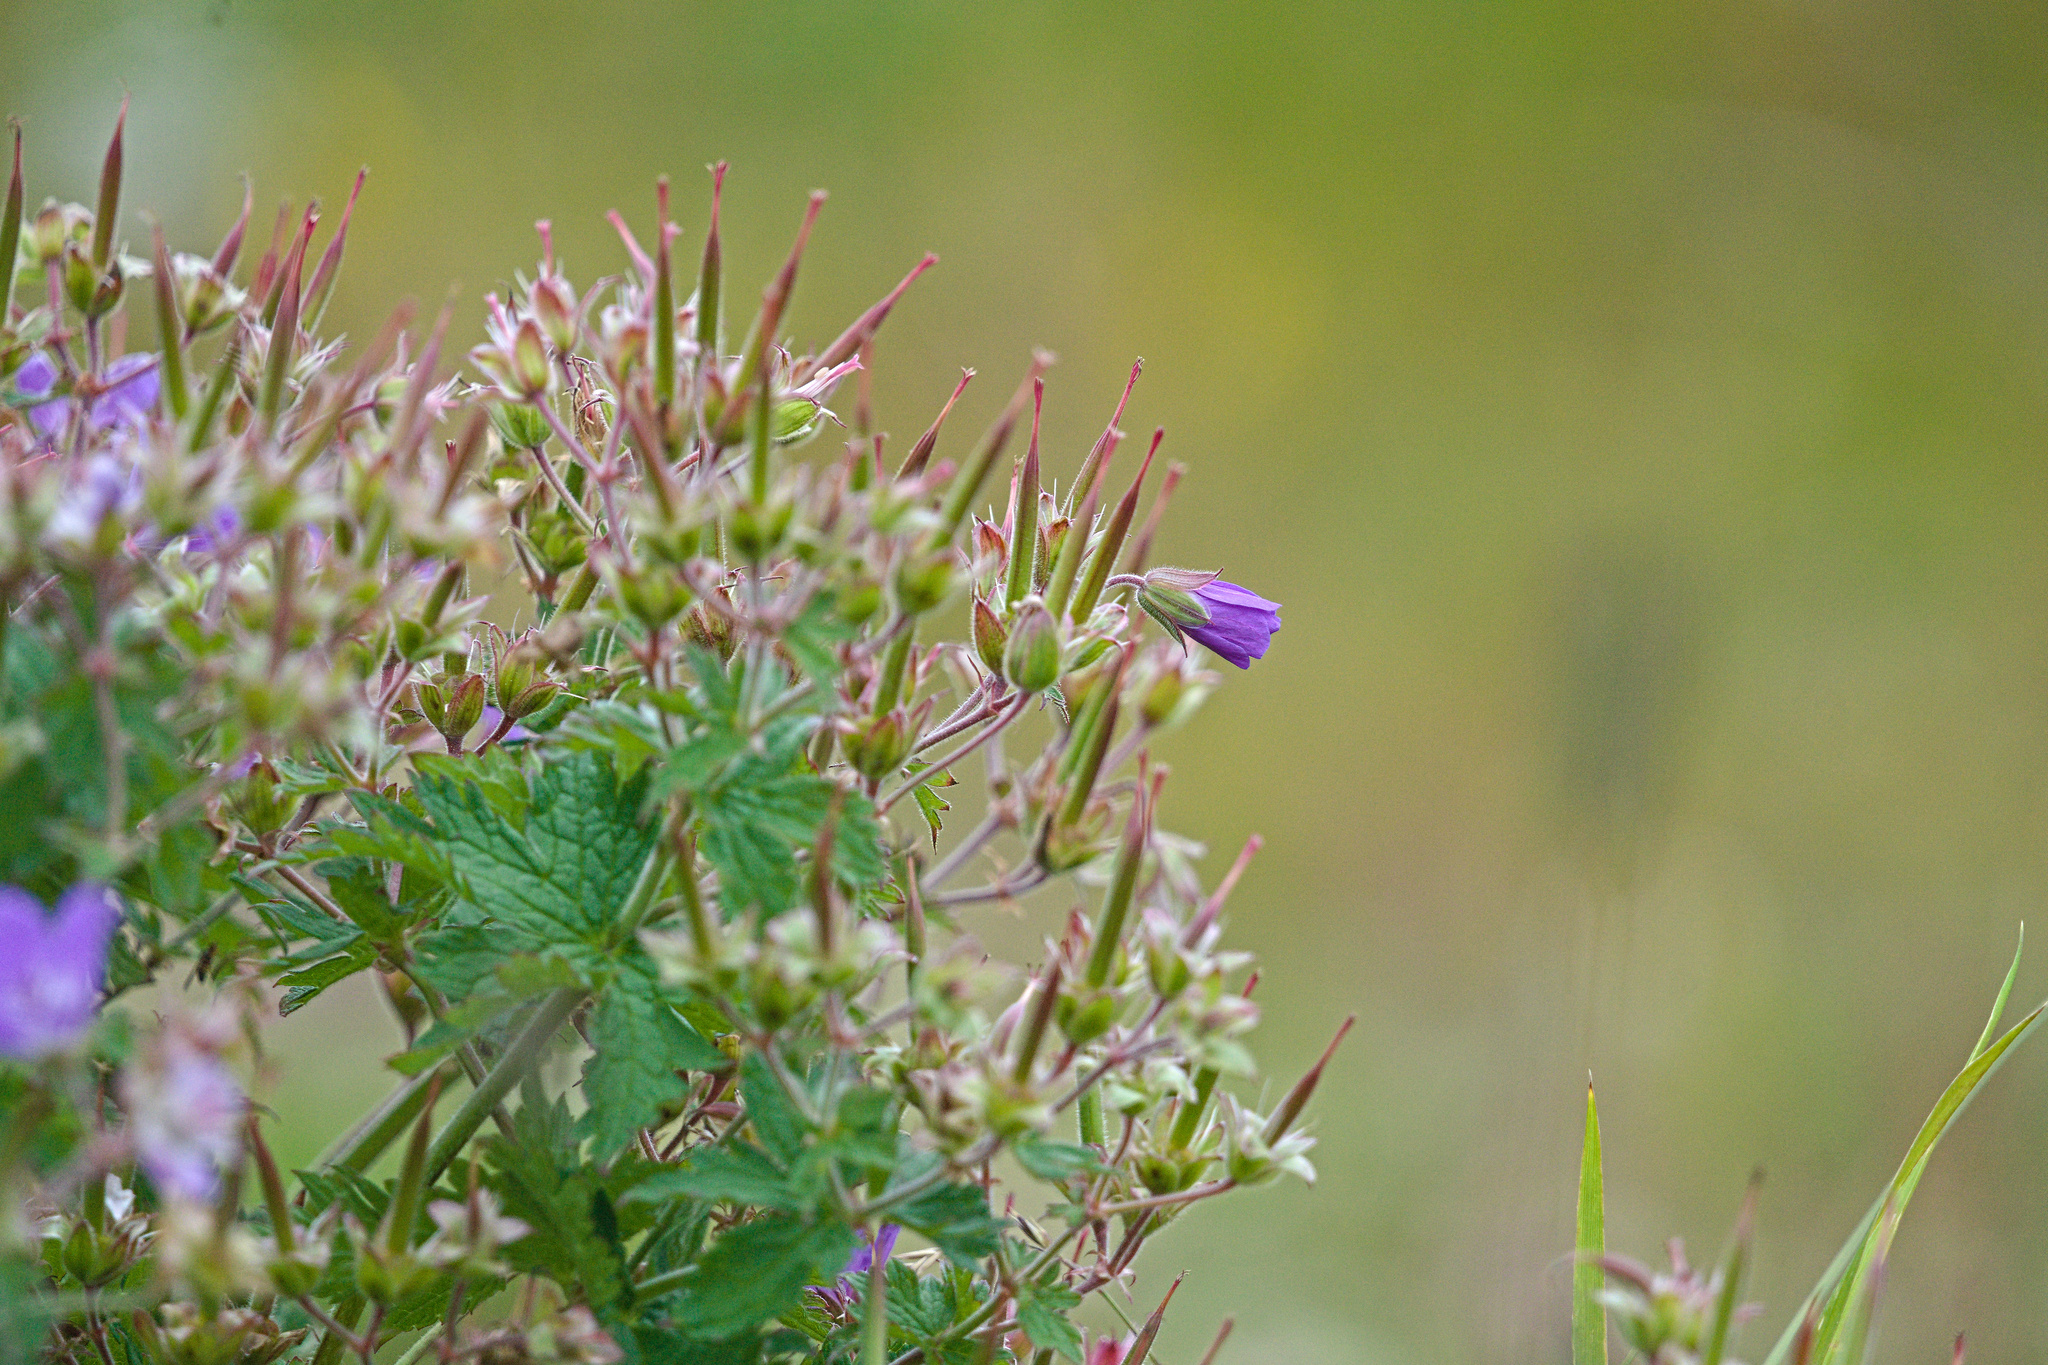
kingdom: Plantae
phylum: Tracheophyta
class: Magnoliopsida
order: Geraniales
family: Geraniaceae
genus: Geranium
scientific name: Geranium sylvaticum
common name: Wood crane's-bill
